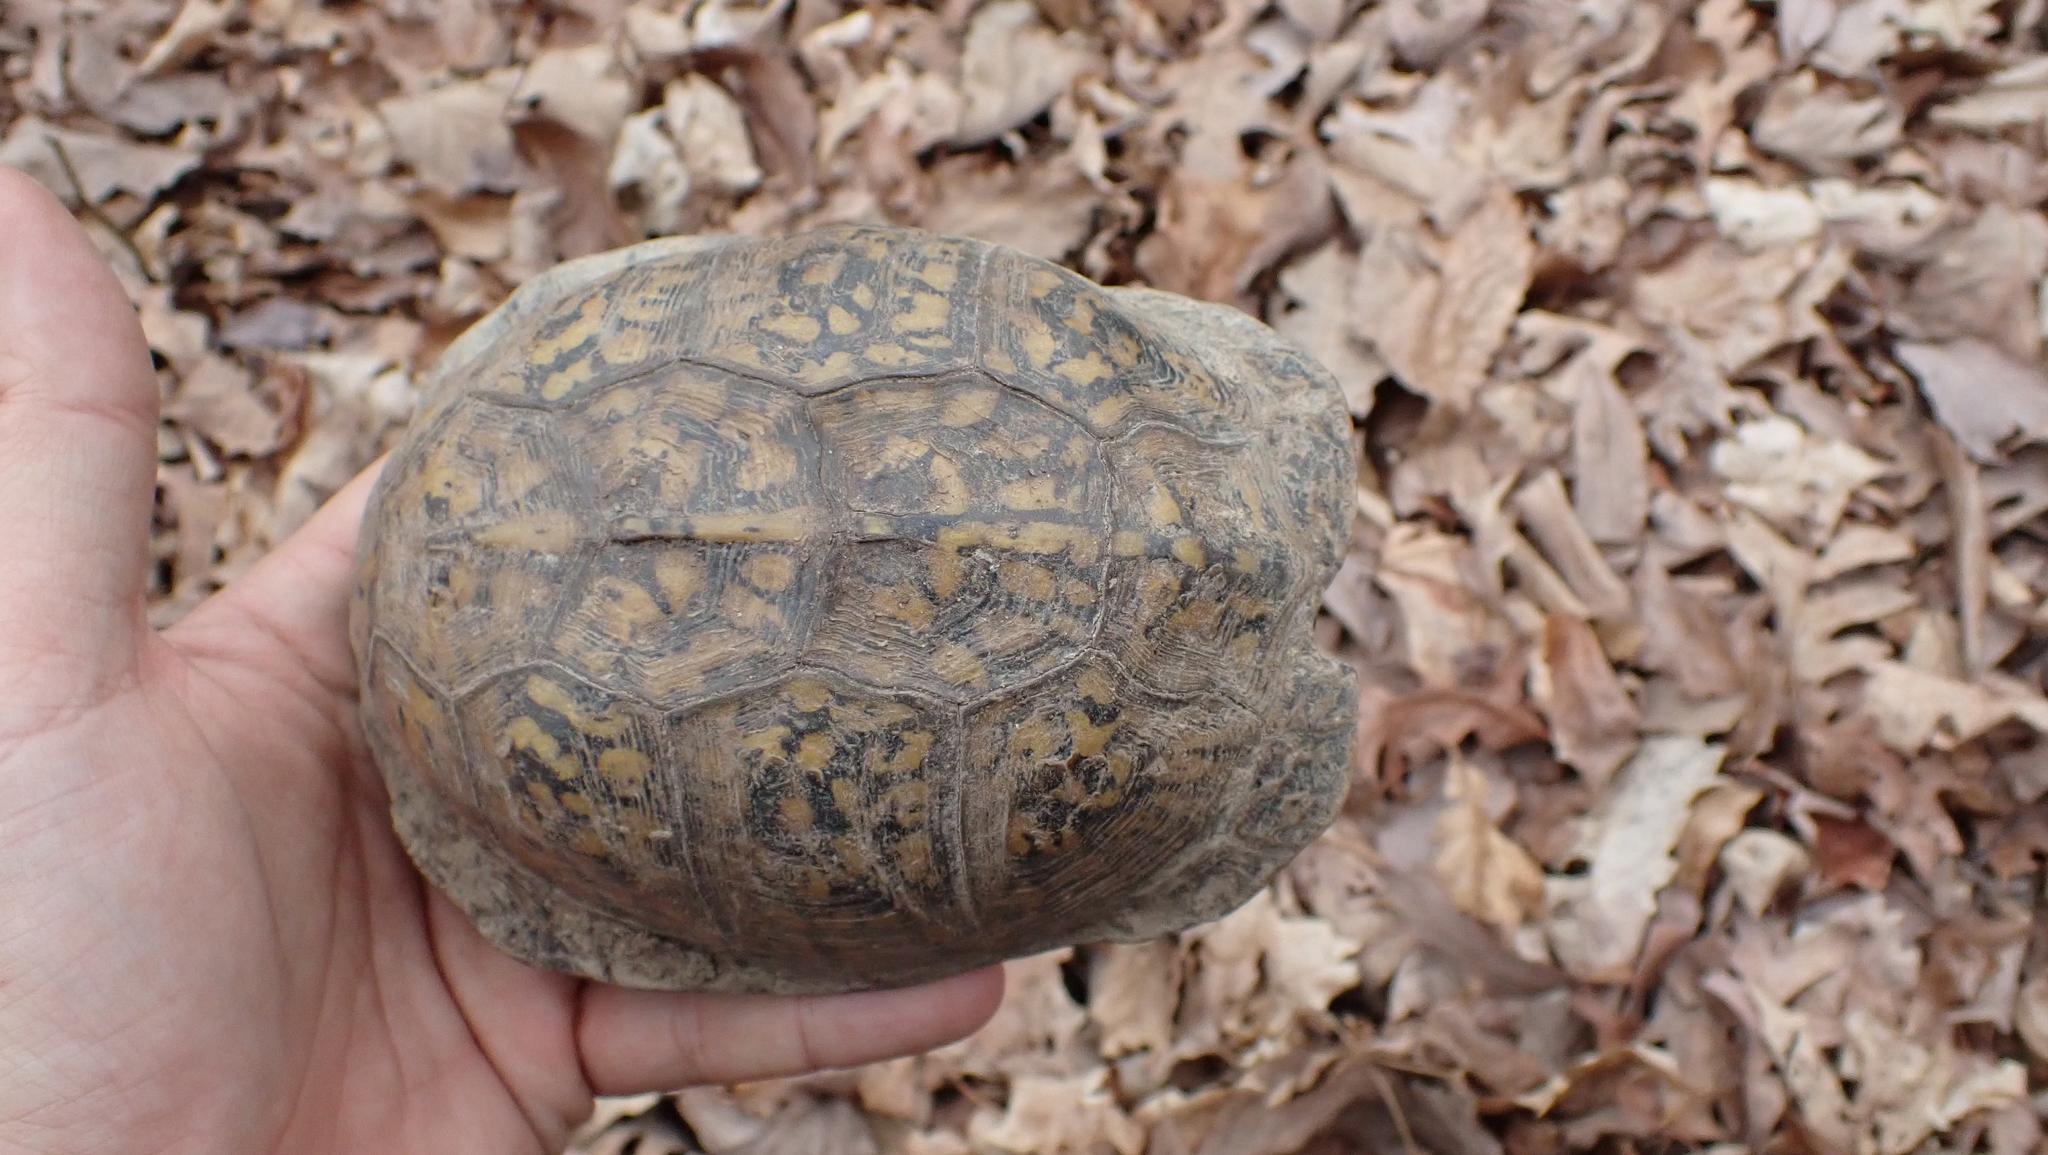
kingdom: Animalia
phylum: Chordata
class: Testudines
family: Emydidae
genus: Terrapene
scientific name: Terrapene carolina
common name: Common box turtle
